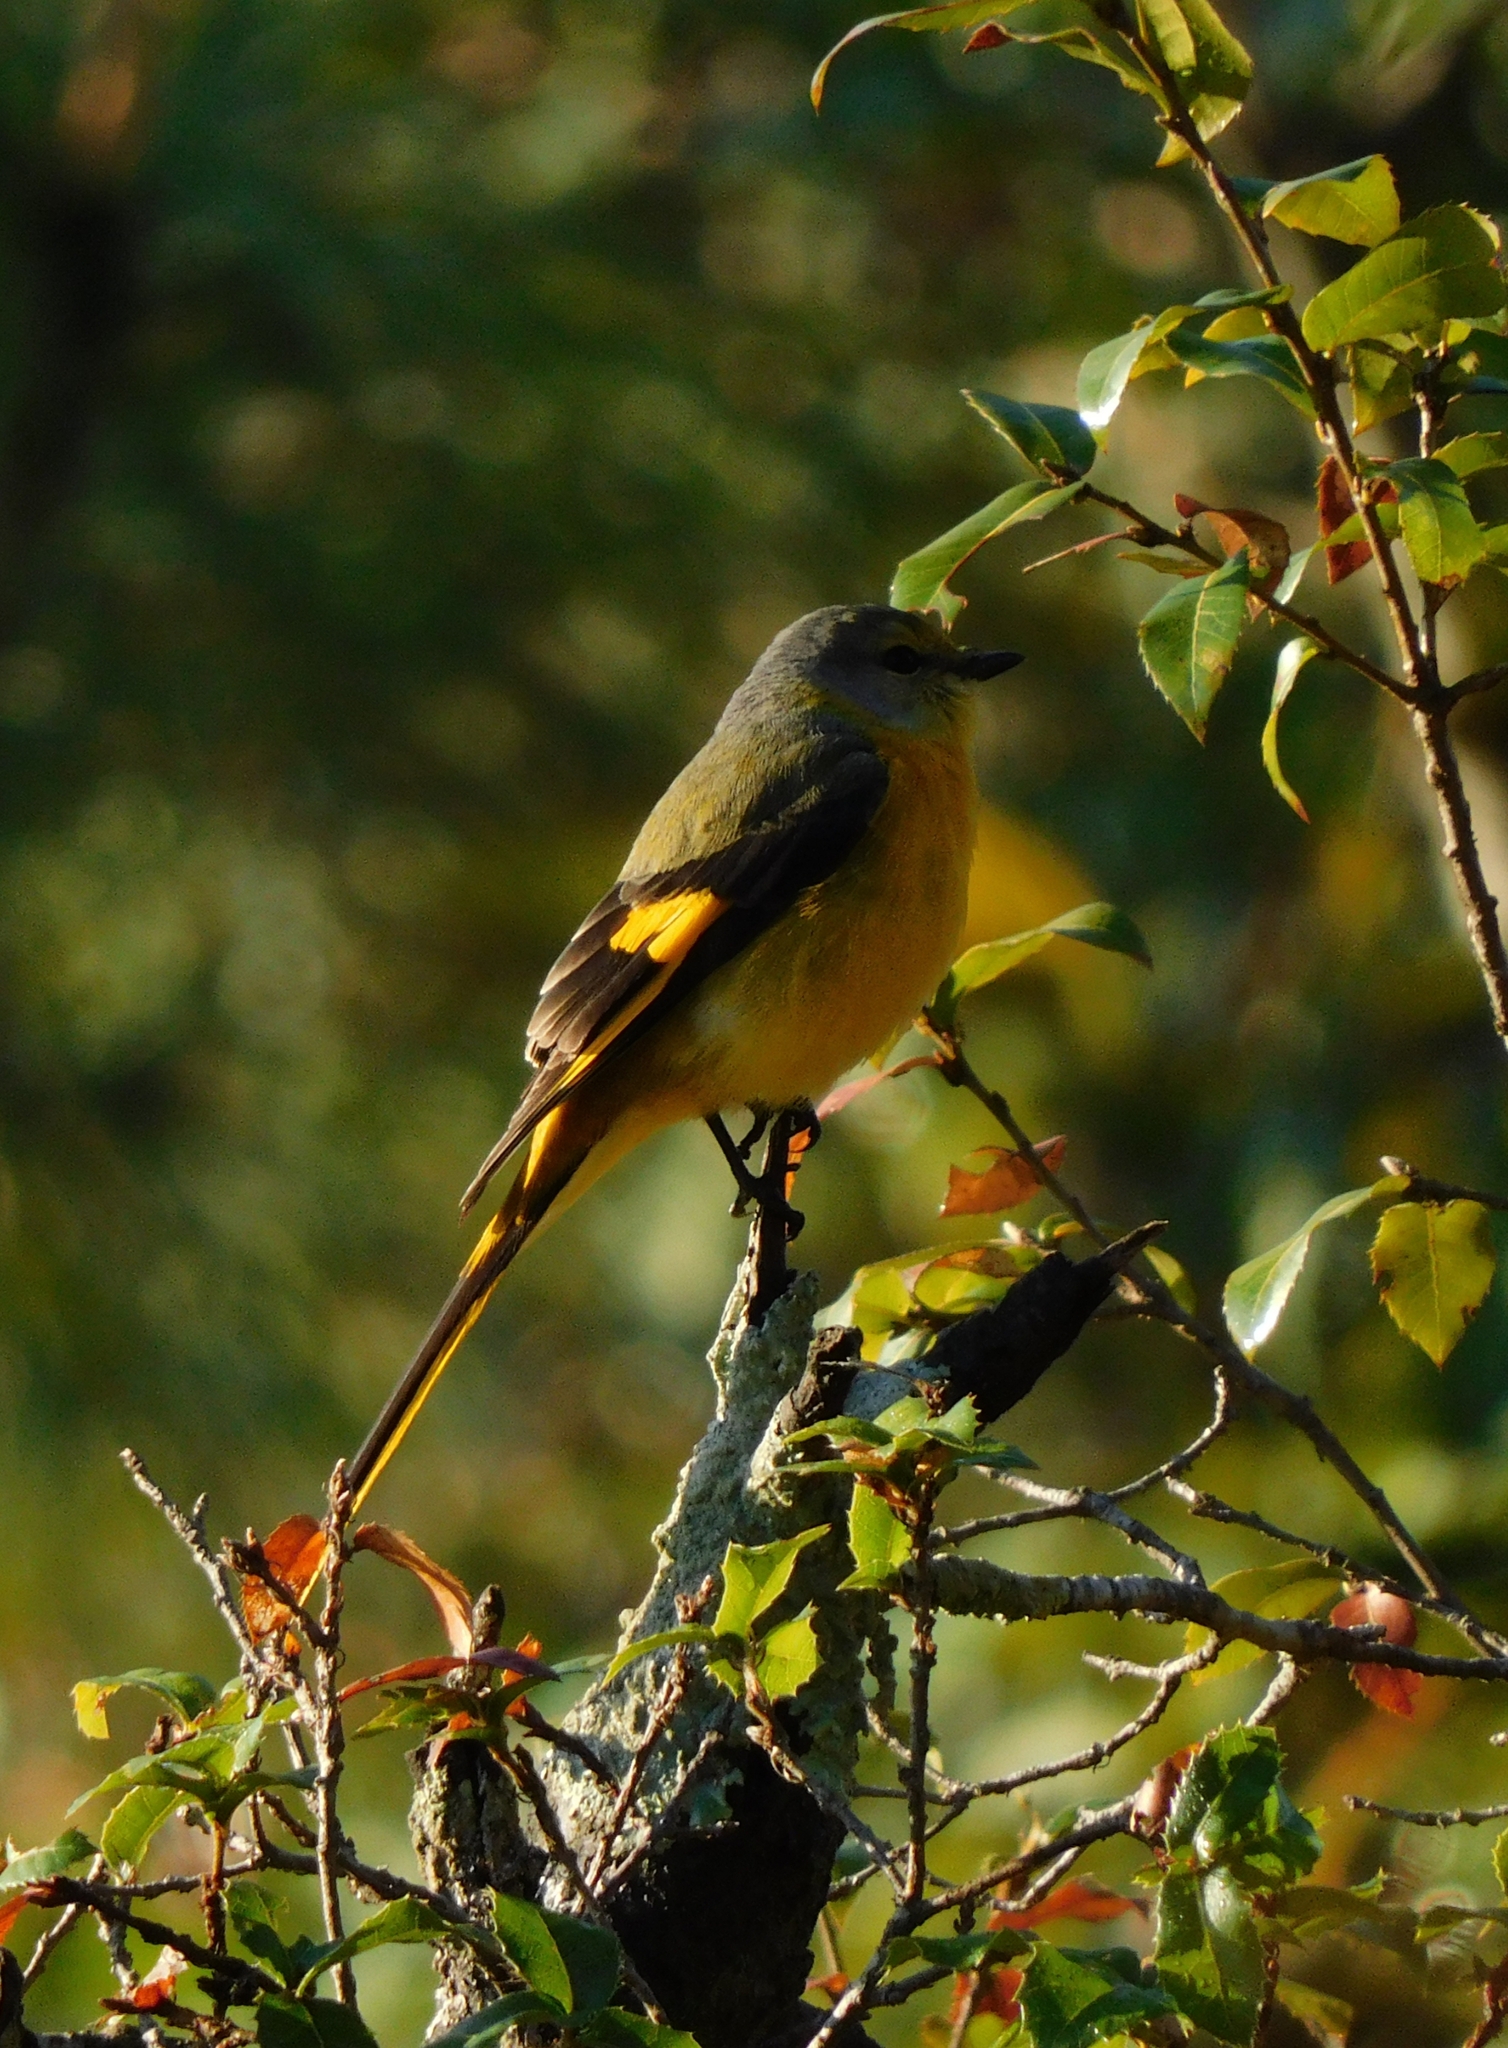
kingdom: Animalia
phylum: Chordata
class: Aves
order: Passeriformes
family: Campephagidae
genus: Pericrocotus
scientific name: Pericrocotus ethologus
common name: Long-tailed minivet
